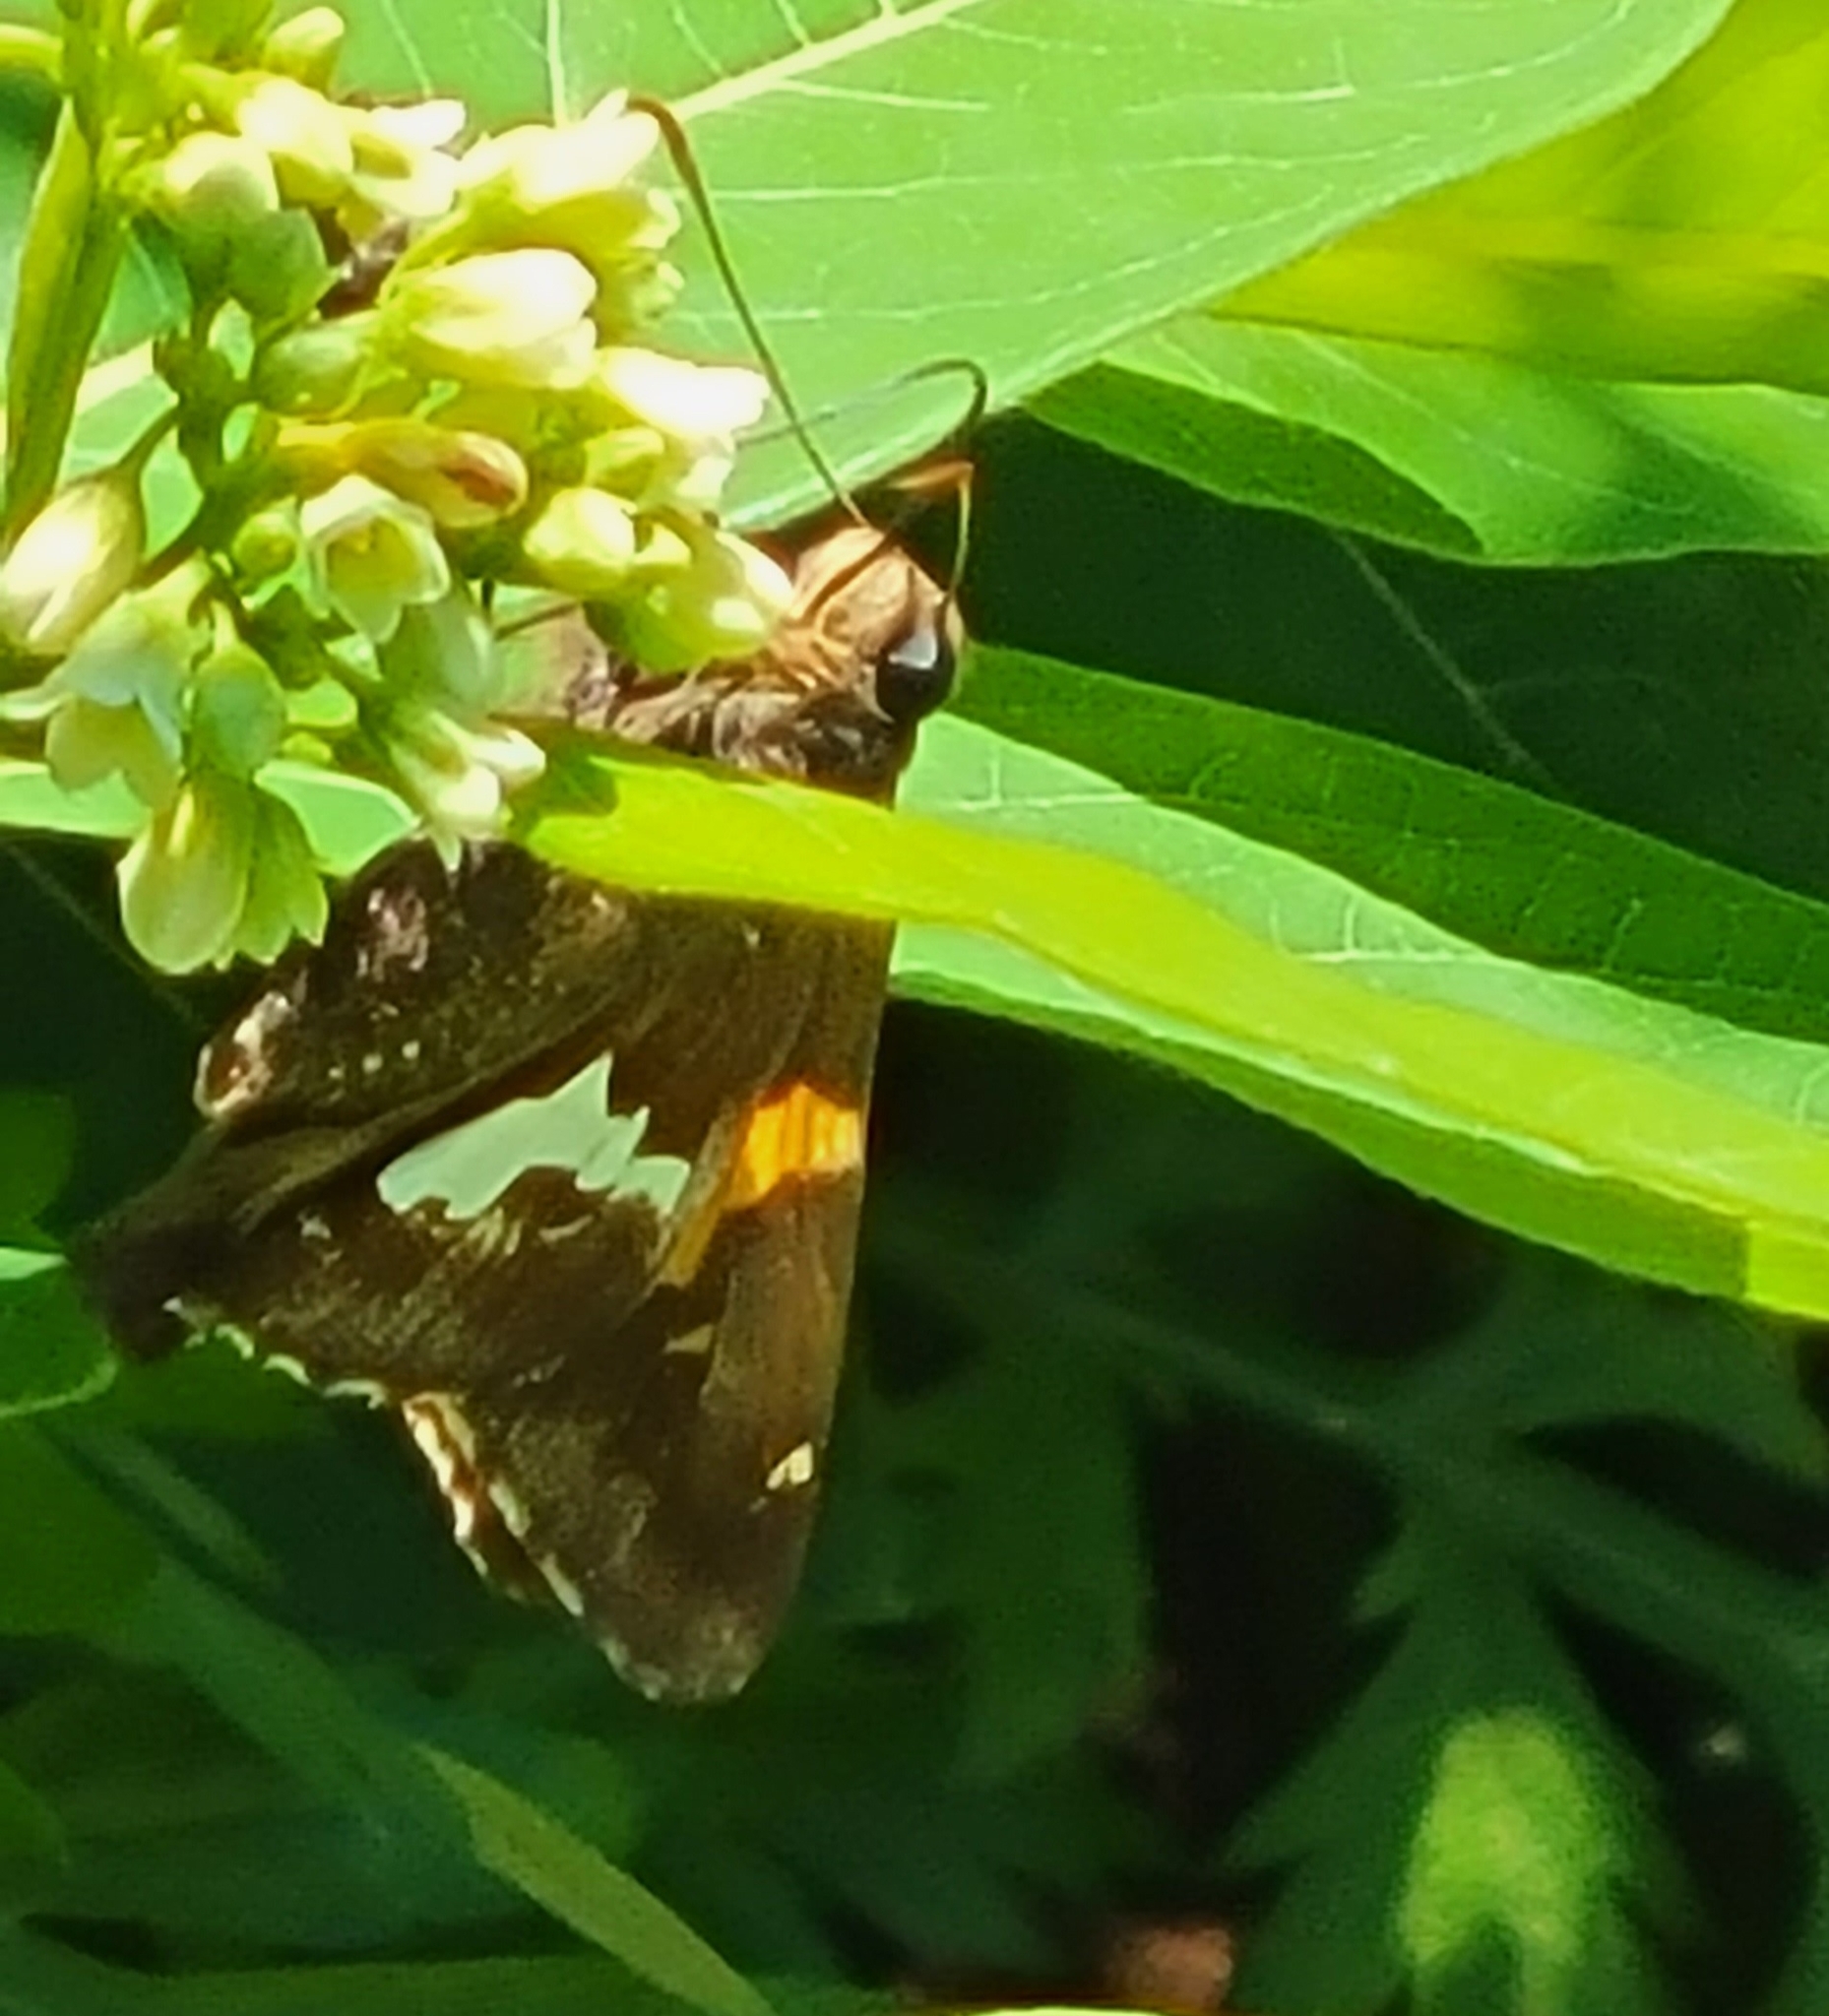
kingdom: Animalia
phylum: Arthropoda
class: Insecta
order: Lepidoptera
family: Hesperiidae
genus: Epargyreus
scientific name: Epargyreus clarus
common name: Silver-spotted skipper
